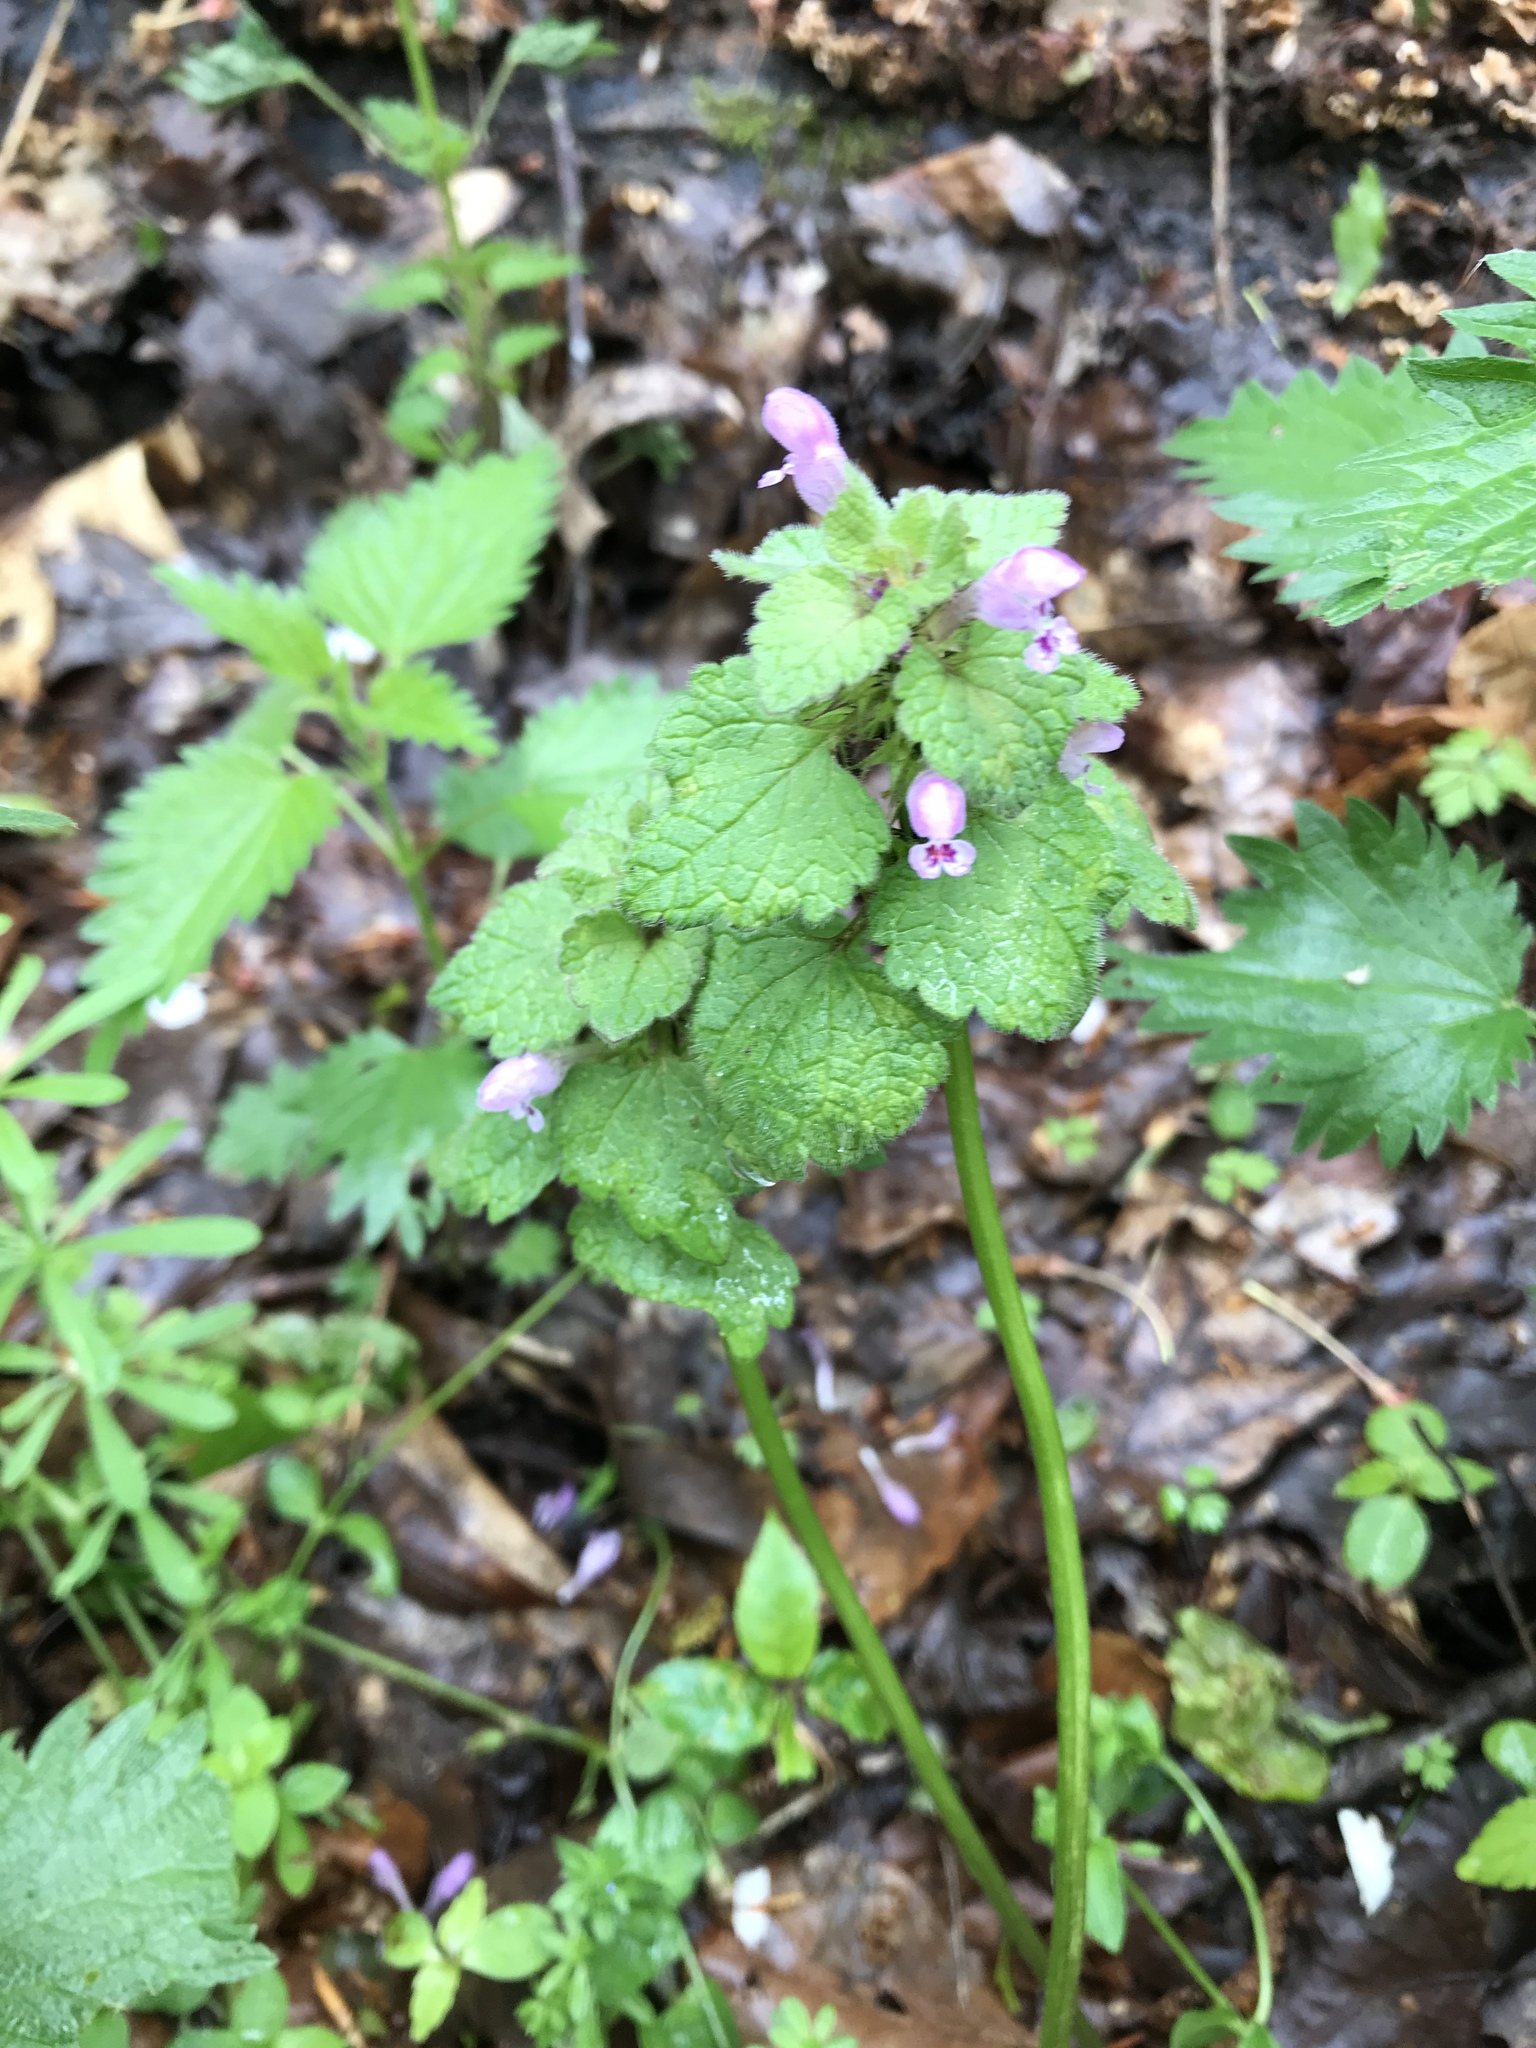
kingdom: Plantae
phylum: Tracheophyta
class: Magnoliopsida
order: Lamiales
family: Lamiaceae
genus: Lamium
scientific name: Lamium purpureum
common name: Red dead-nettle
